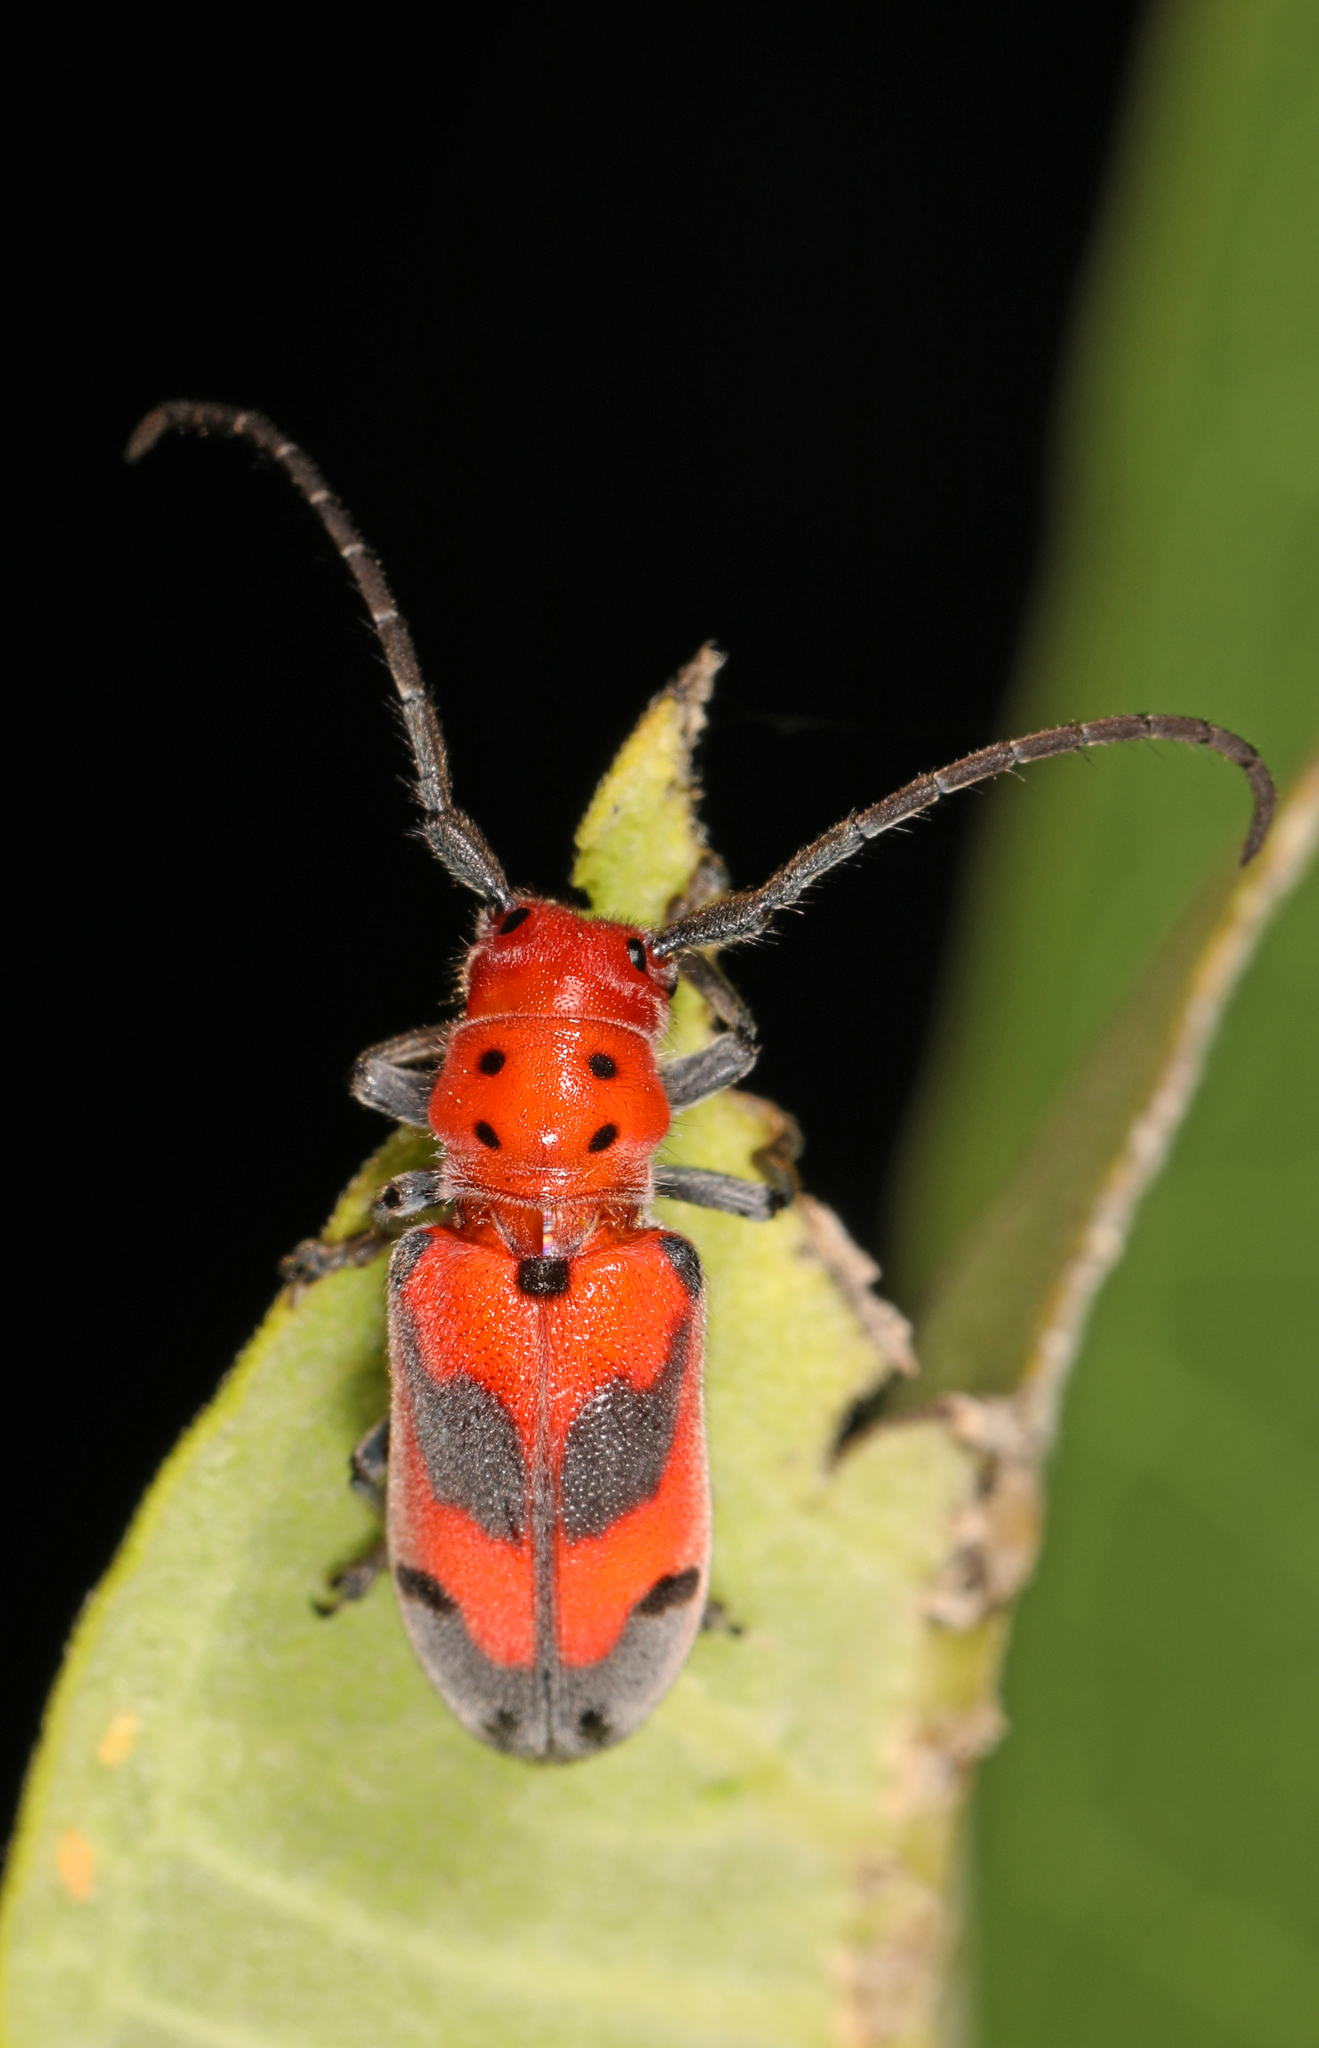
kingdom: Animalia
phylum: Arthropoda
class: Insecta
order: Coleoptera
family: Cerambycidae
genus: Tetraopes
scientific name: Tetraopes melanurus
